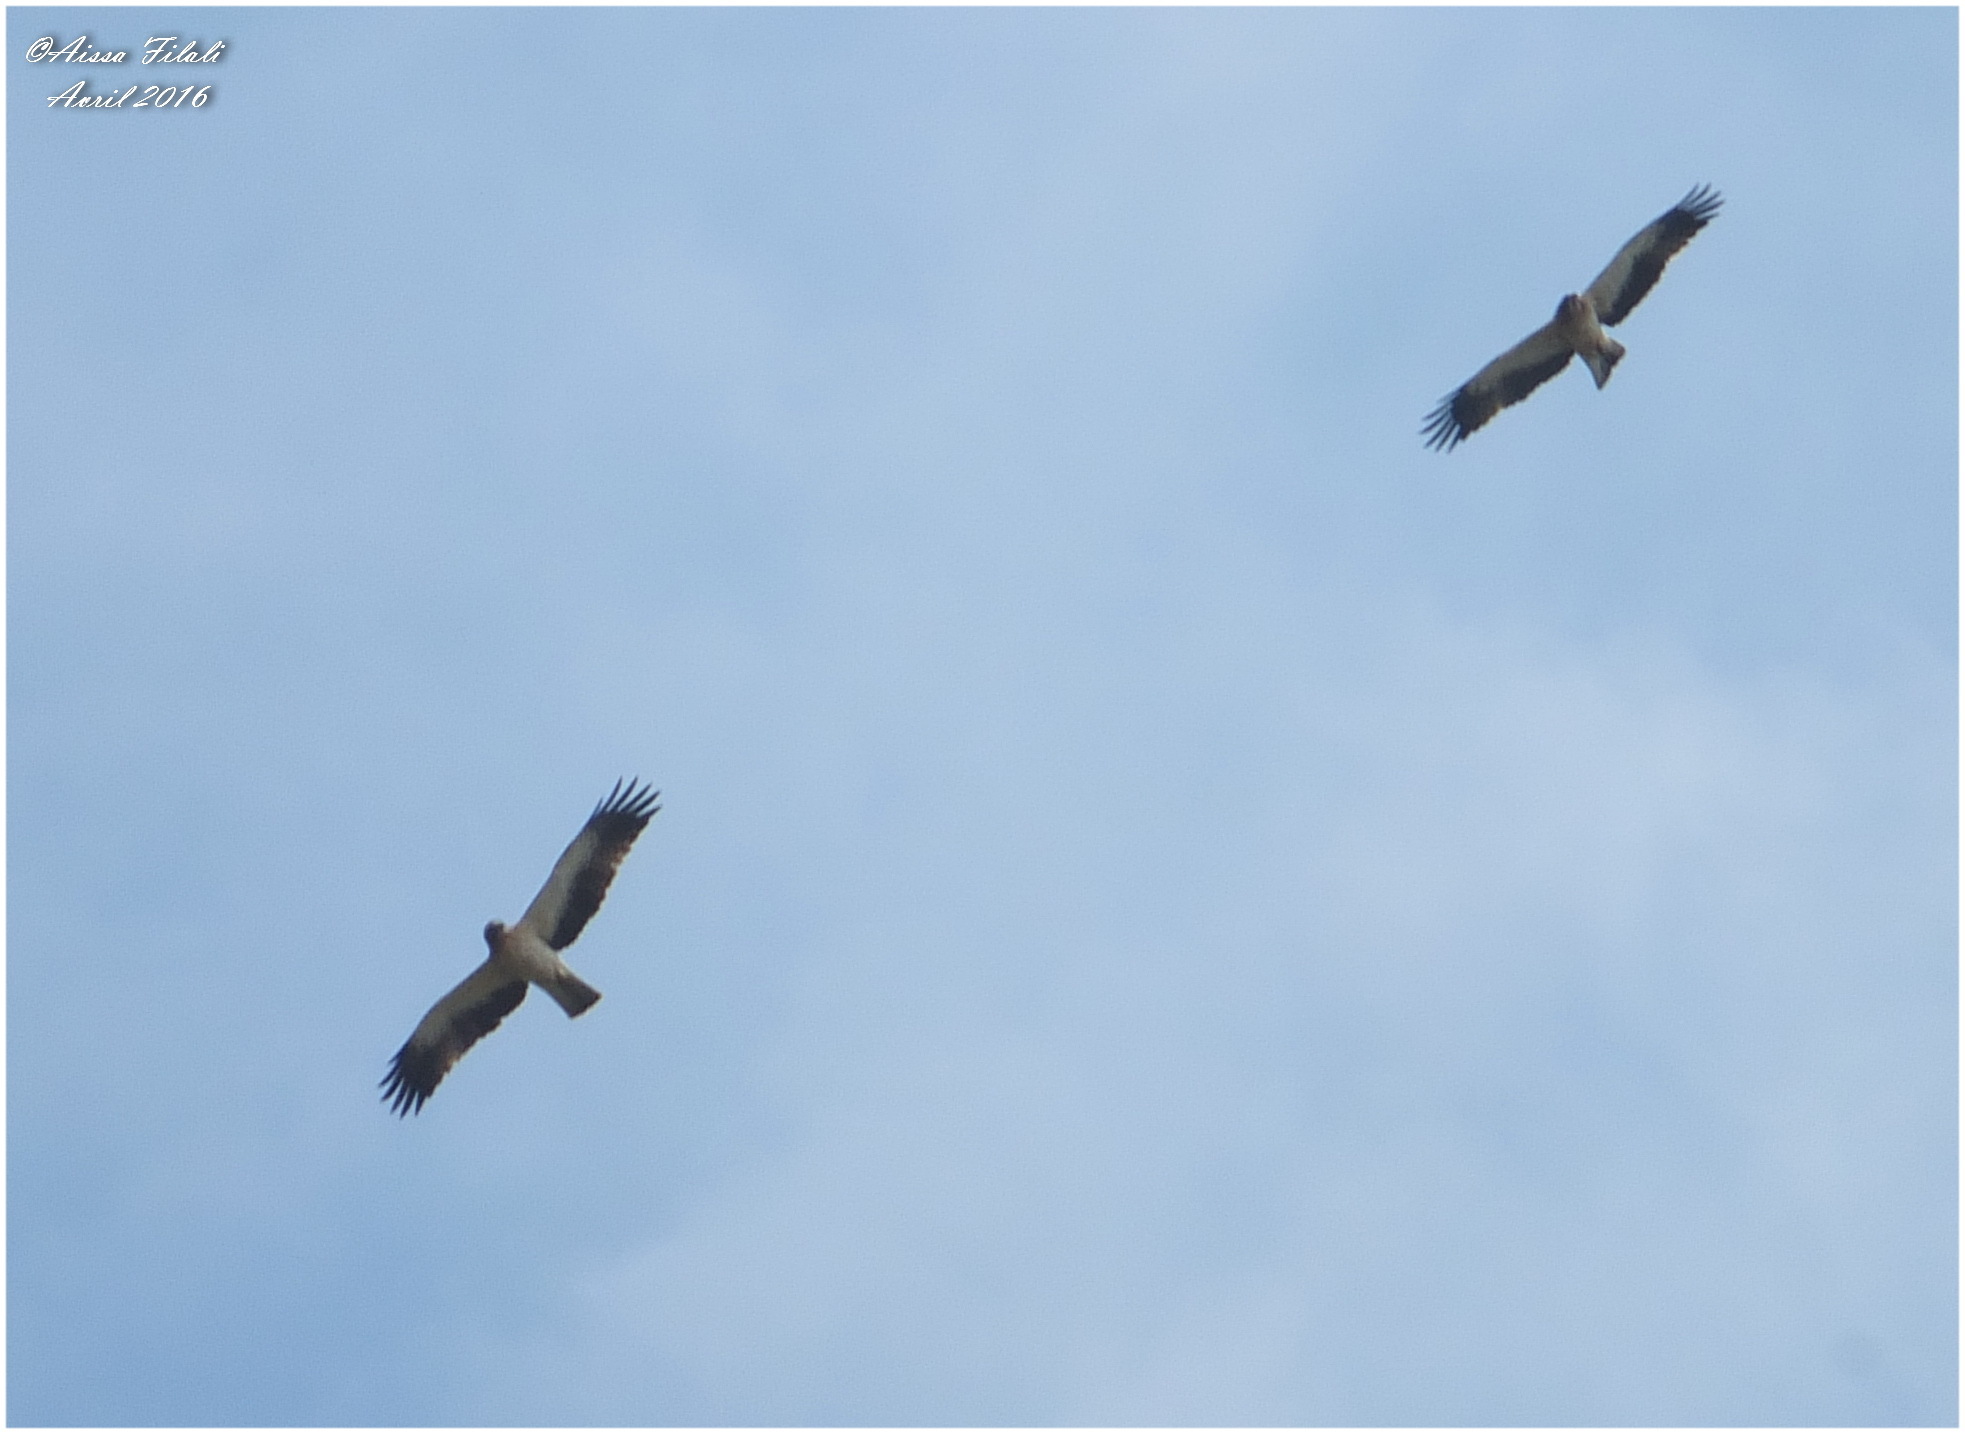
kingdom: Animalia
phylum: Chordata
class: Aves
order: Accipitriformes
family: Accipitridae
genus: Hieraaetus
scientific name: Hieraaetus pennatus
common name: Booted eagle
